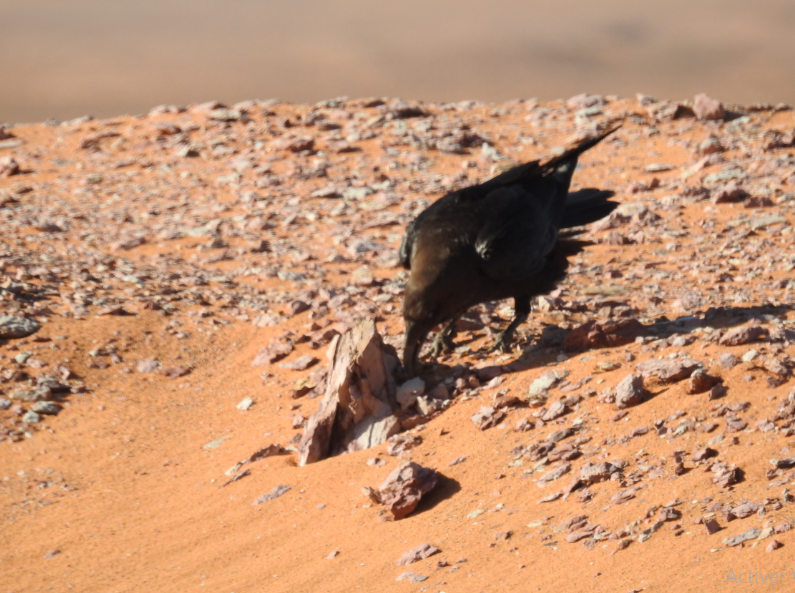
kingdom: Animalia
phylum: Chordata
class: Aves
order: Passeriformes
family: Corvidae
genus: Corvus
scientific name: Corvus ruficollis
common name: Brown-necked raven
